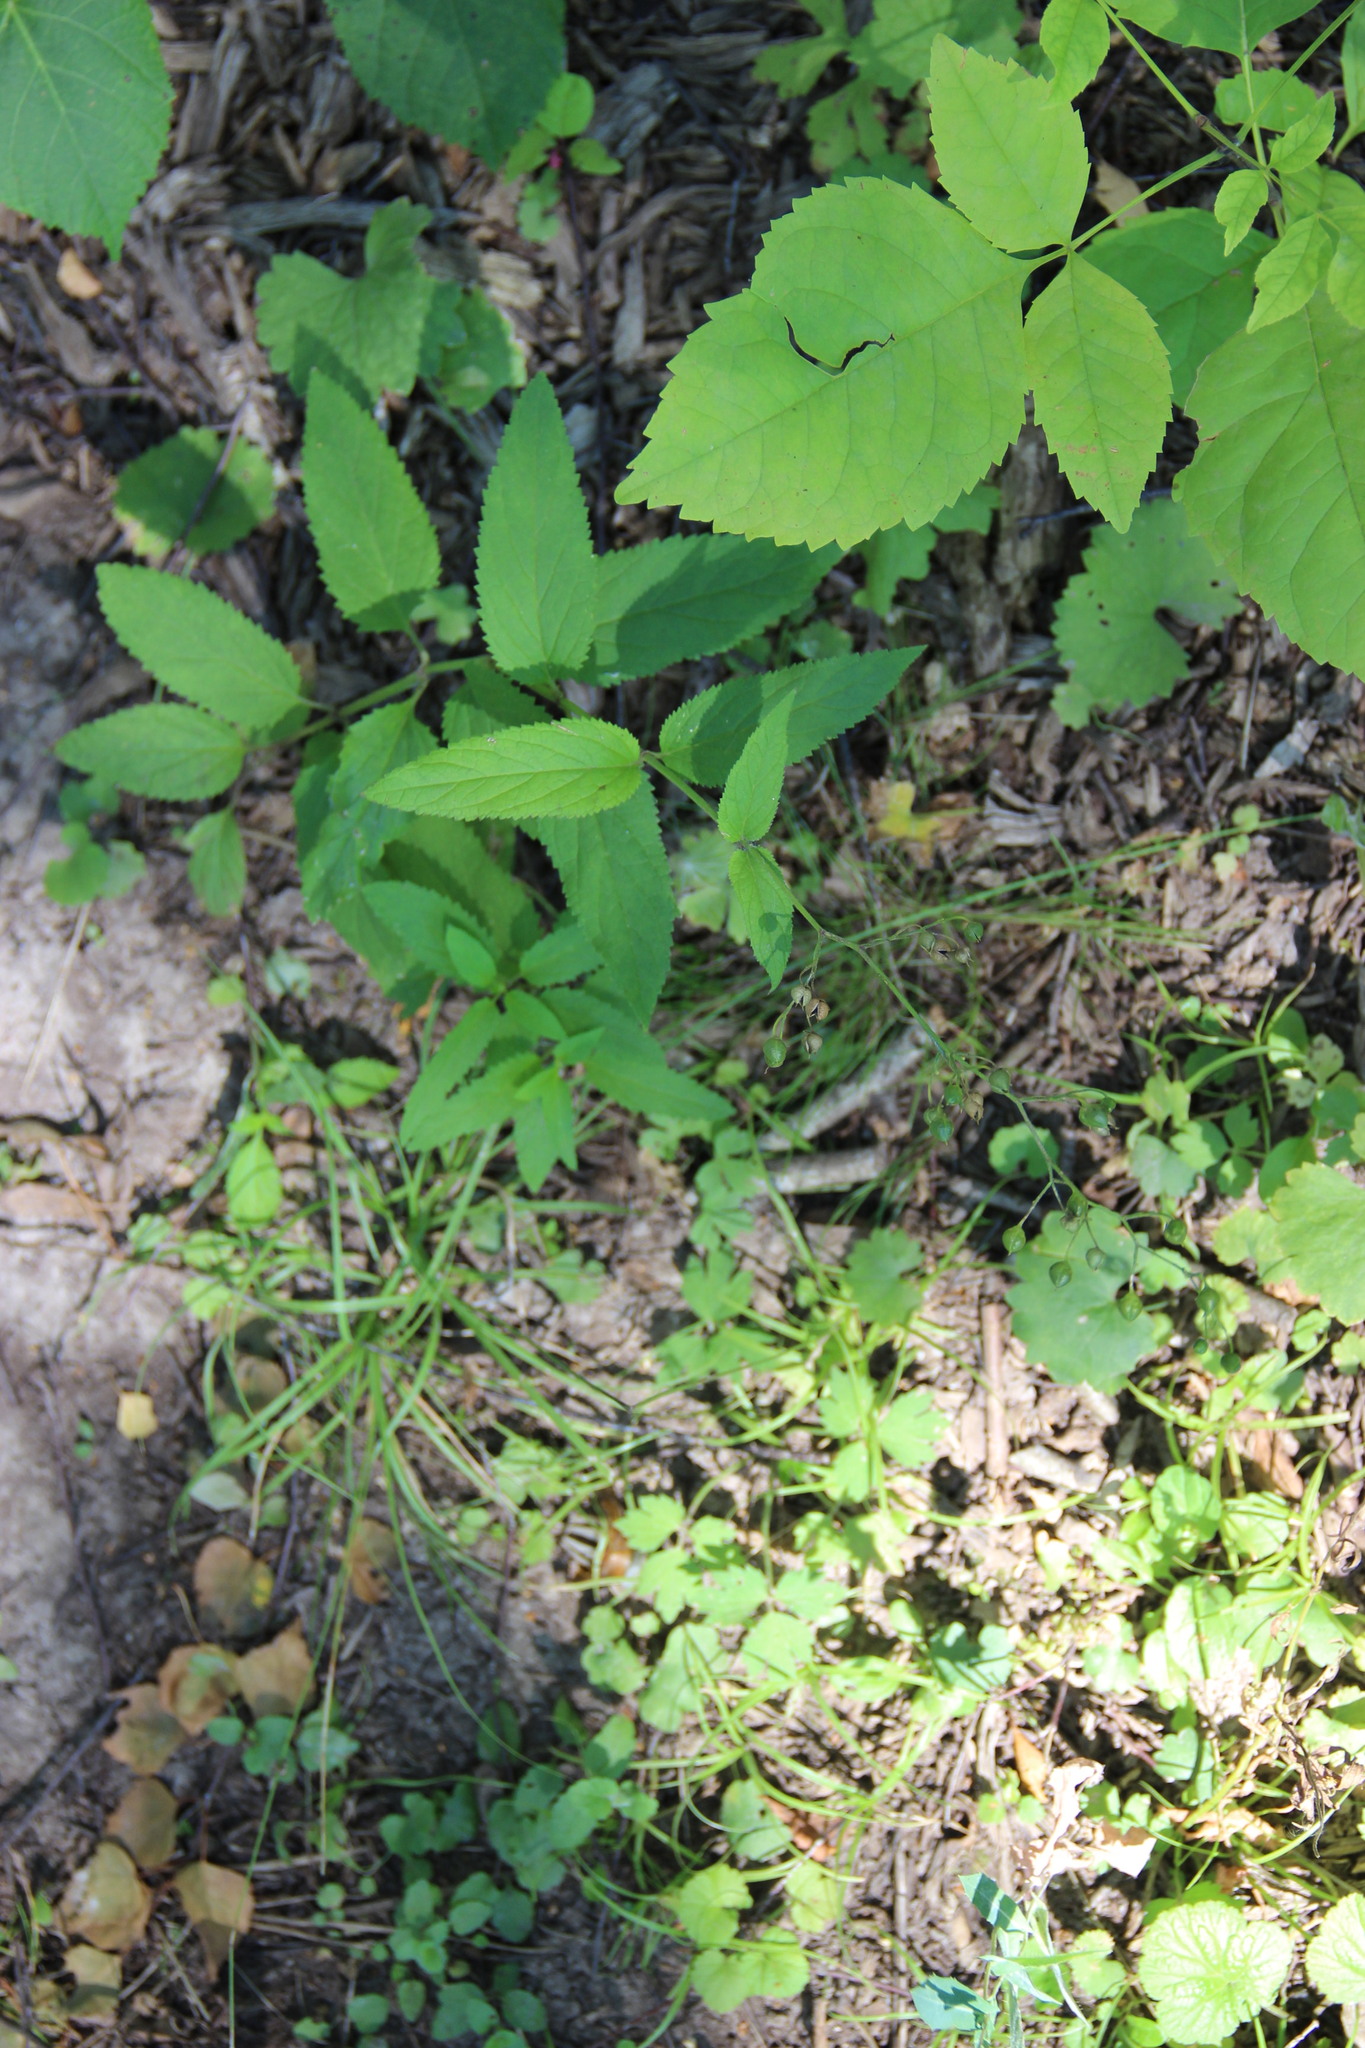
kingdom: Plantae
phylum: Tracheophyta
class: Magnoliopsida
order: Lamiales
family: Scrophulariaceae
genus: Scrophularia
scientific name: Scrophularia nodosa
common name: Common figwort
